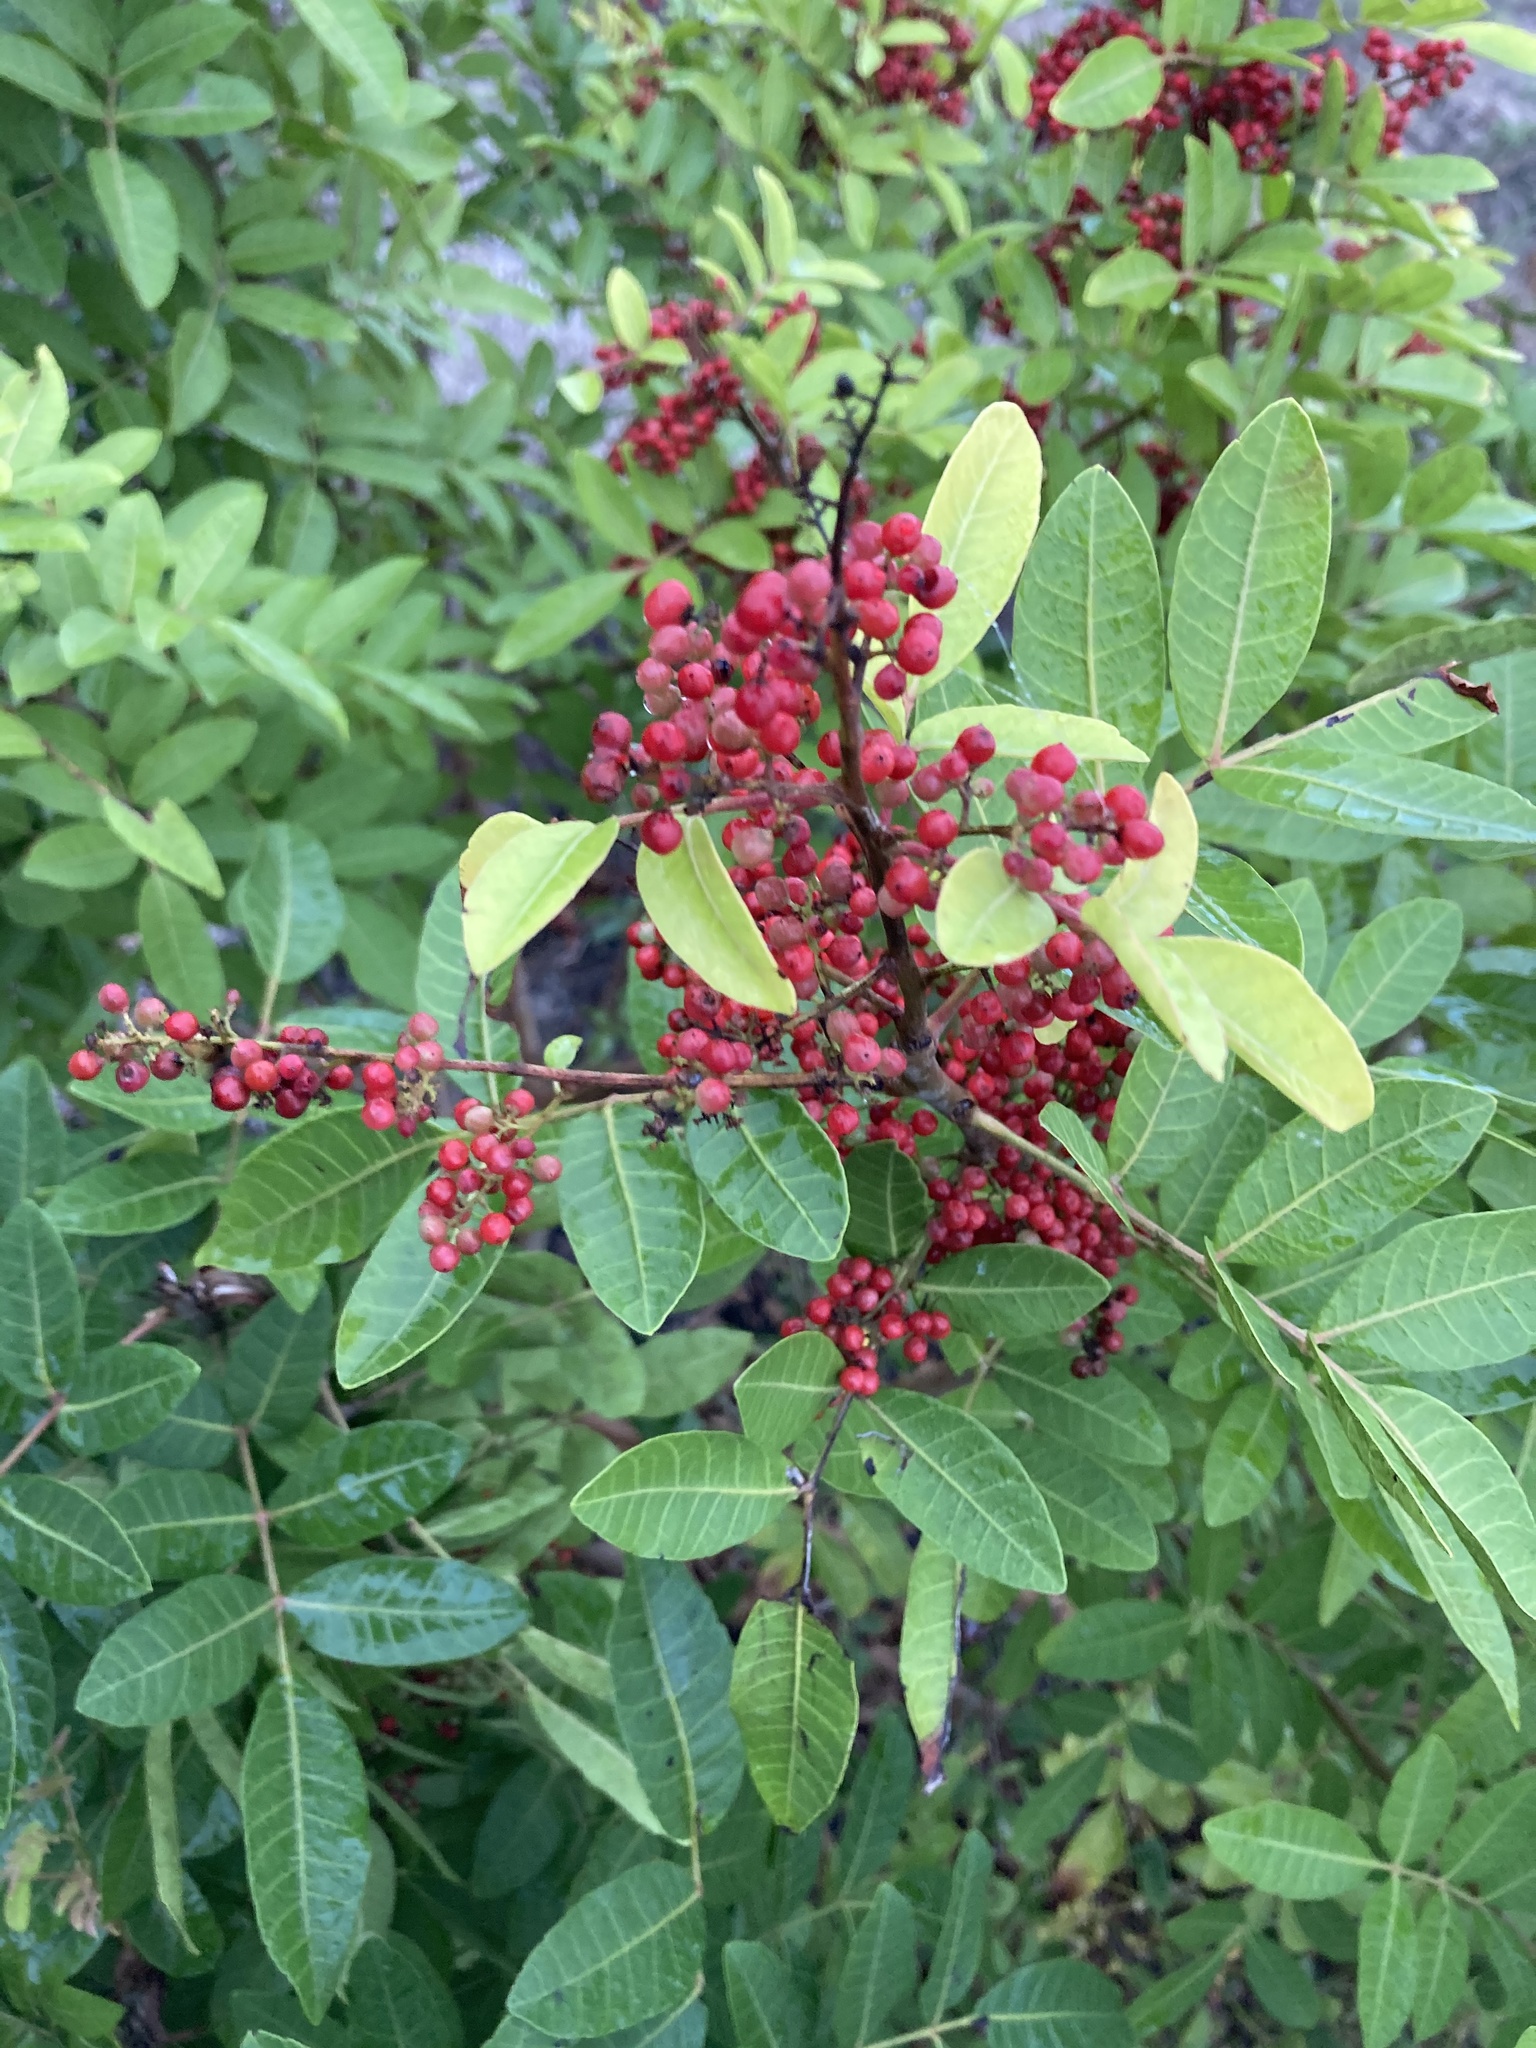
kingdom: Plantae
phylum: Tracheophyta
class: Magnoliopsida
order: Sapindales
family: Anacardiaceae
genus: Schinus
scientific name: Schinus terebinthifolia
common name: Brazilian peppertree
